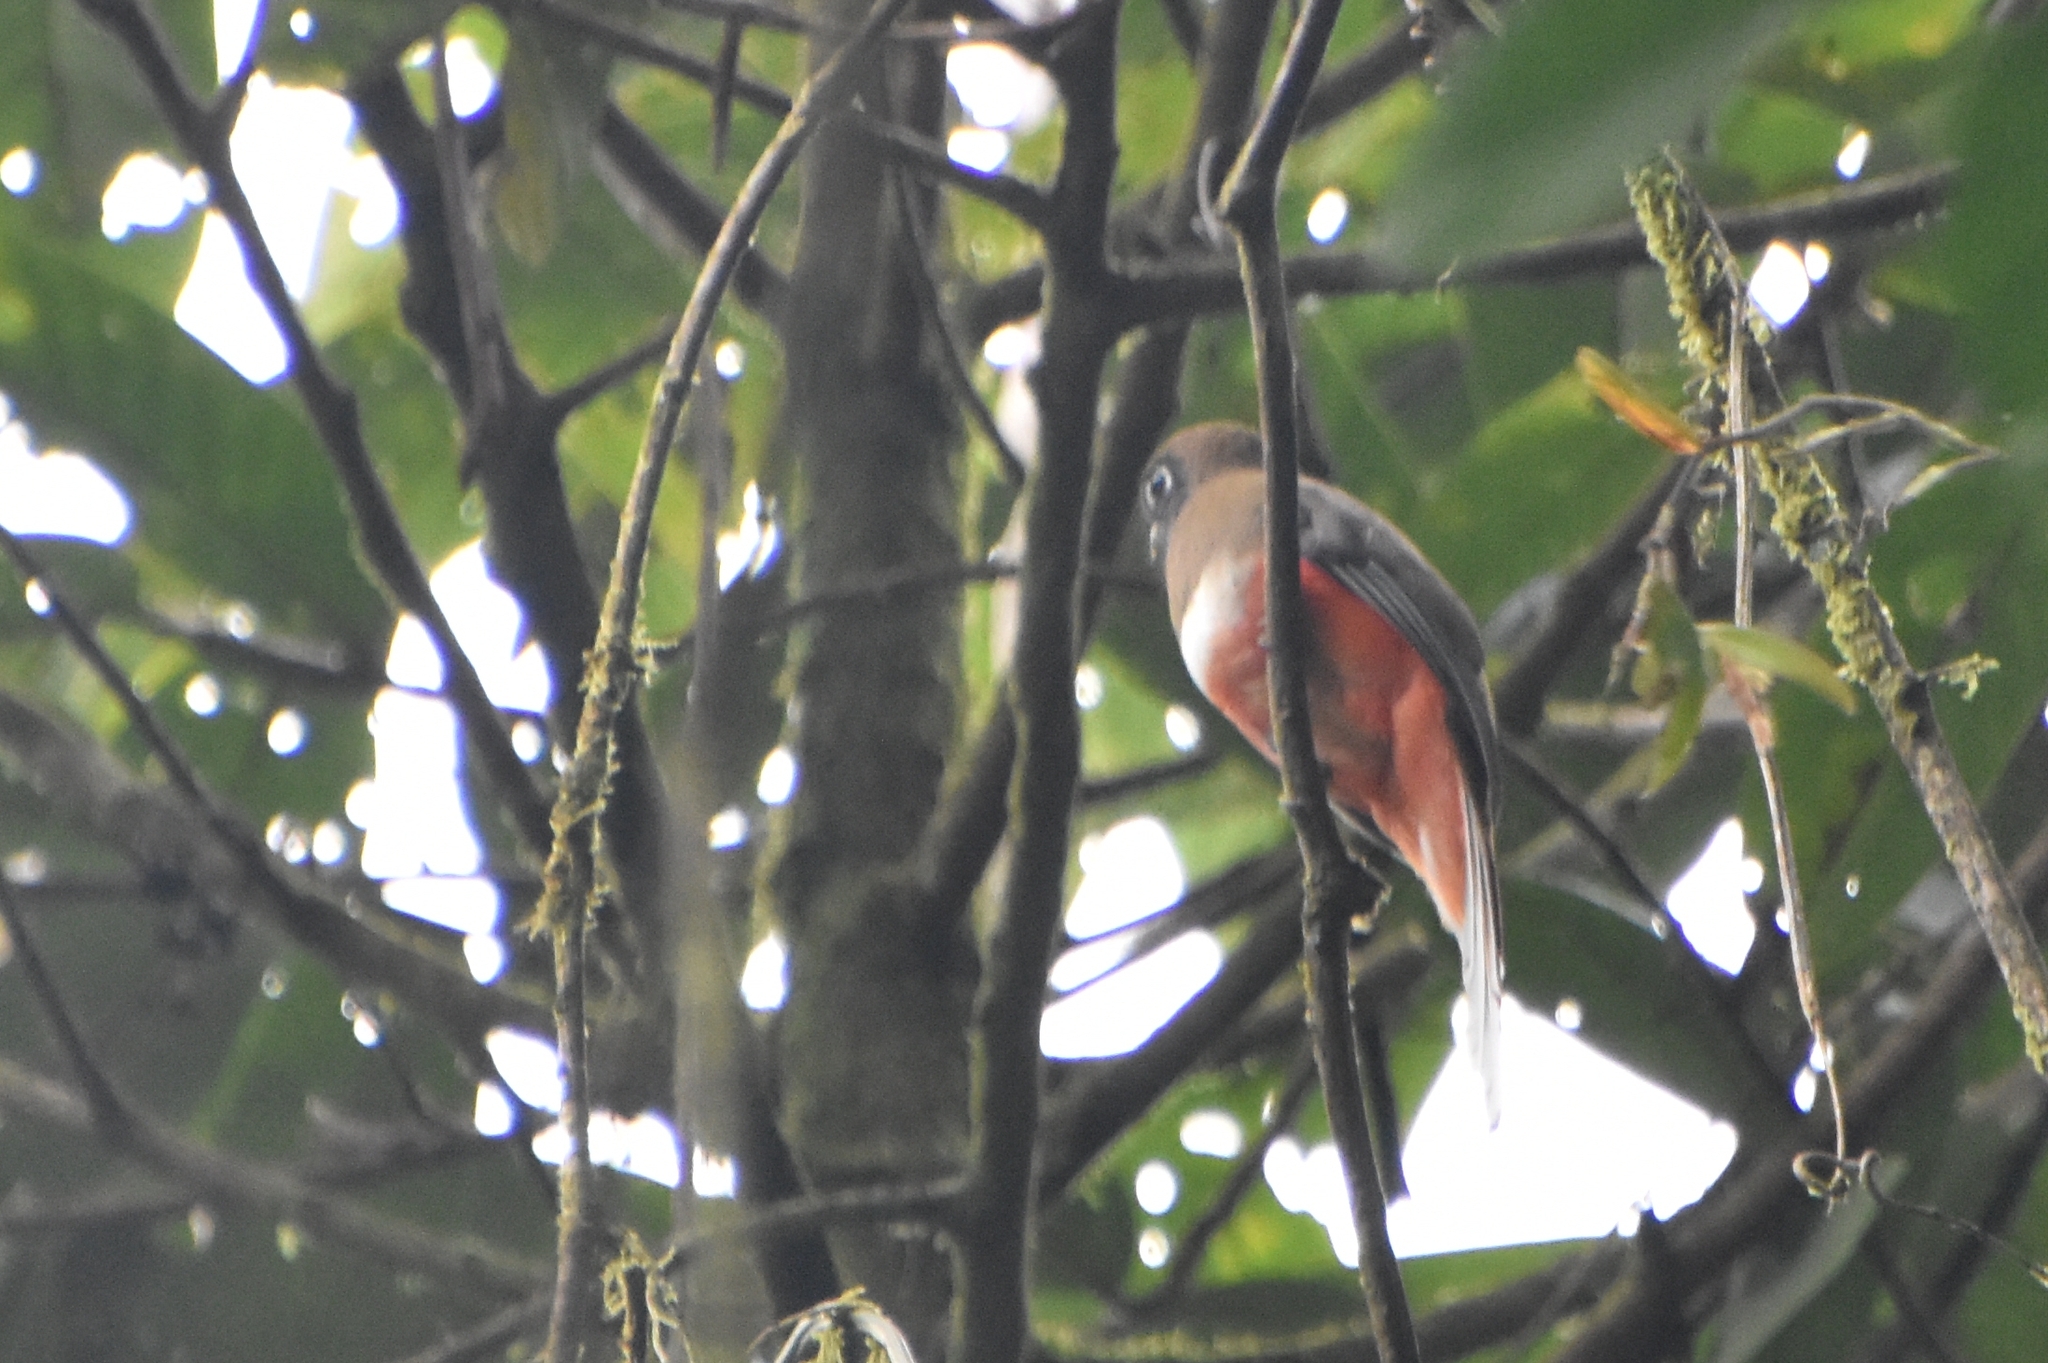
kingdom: Animalia
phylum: Chordata
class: Aves
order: Trogoniformes
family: Trogonidae
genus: Trogon
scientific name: Trogon collaris
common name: Collared trogon
